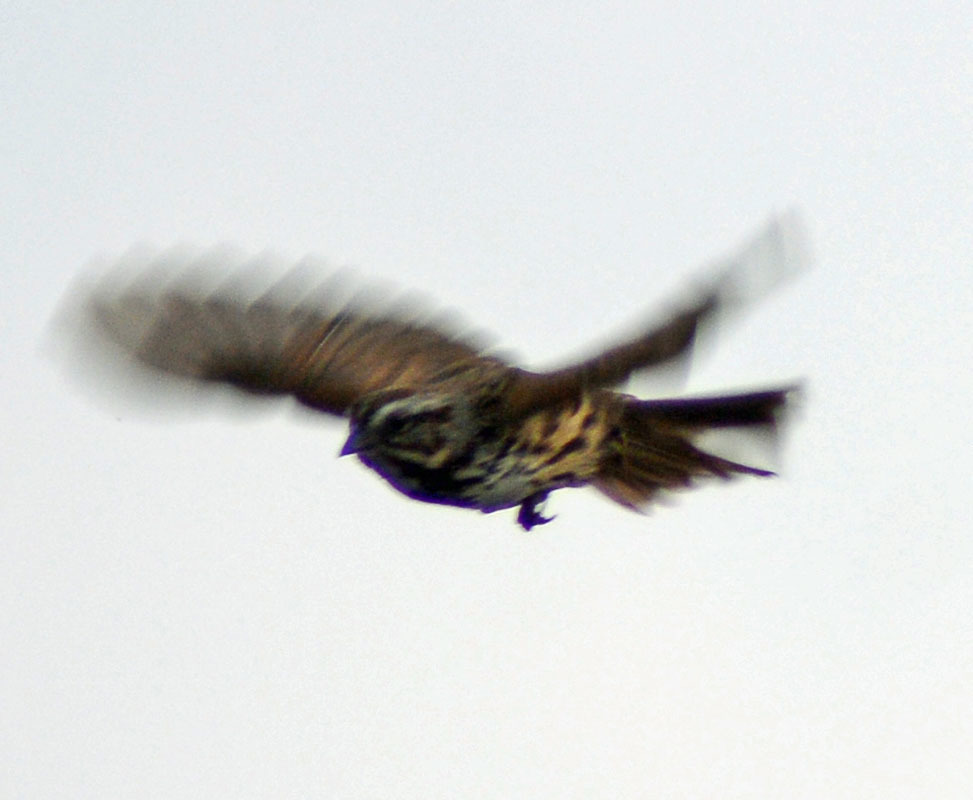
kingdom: Animalia
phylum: Chordata
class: Aves
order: Passeriformes
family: Passerellidae
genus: Melospiza
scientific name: Melospiza melodia
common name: Song sparrow
